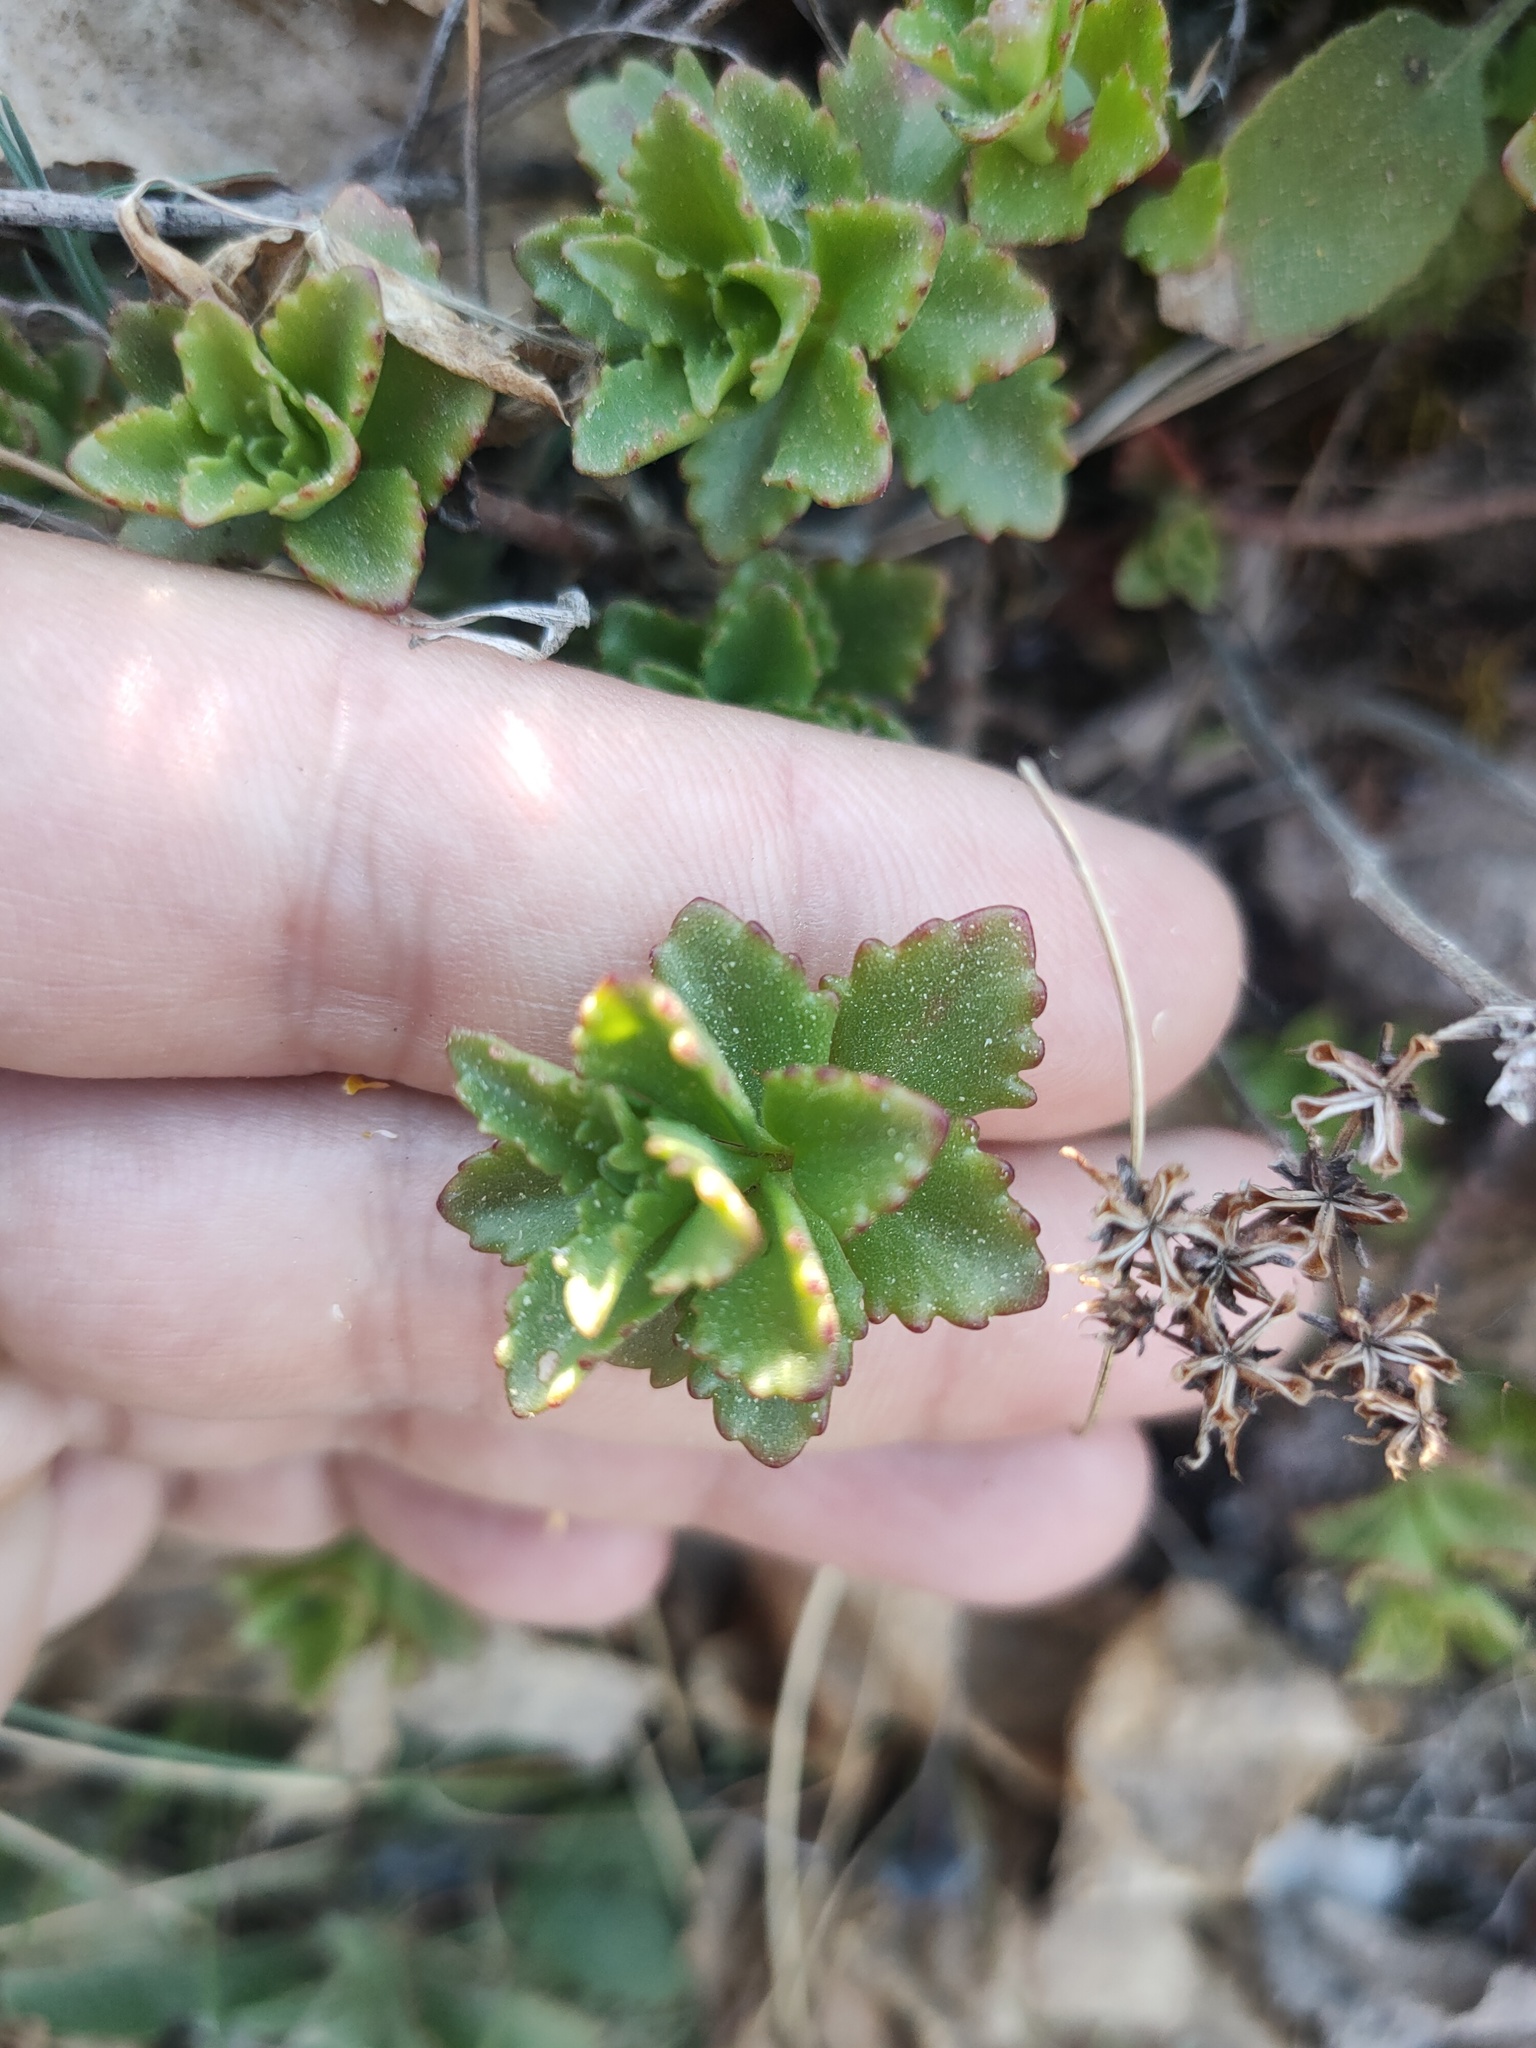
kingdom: Plantae
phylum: Tracheophyta
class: Magnoliopsida
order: Saxifragales
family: Crassulaceae
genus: Phedimus
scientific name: Phedimus hybridus
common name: Hybrid stonecrop
